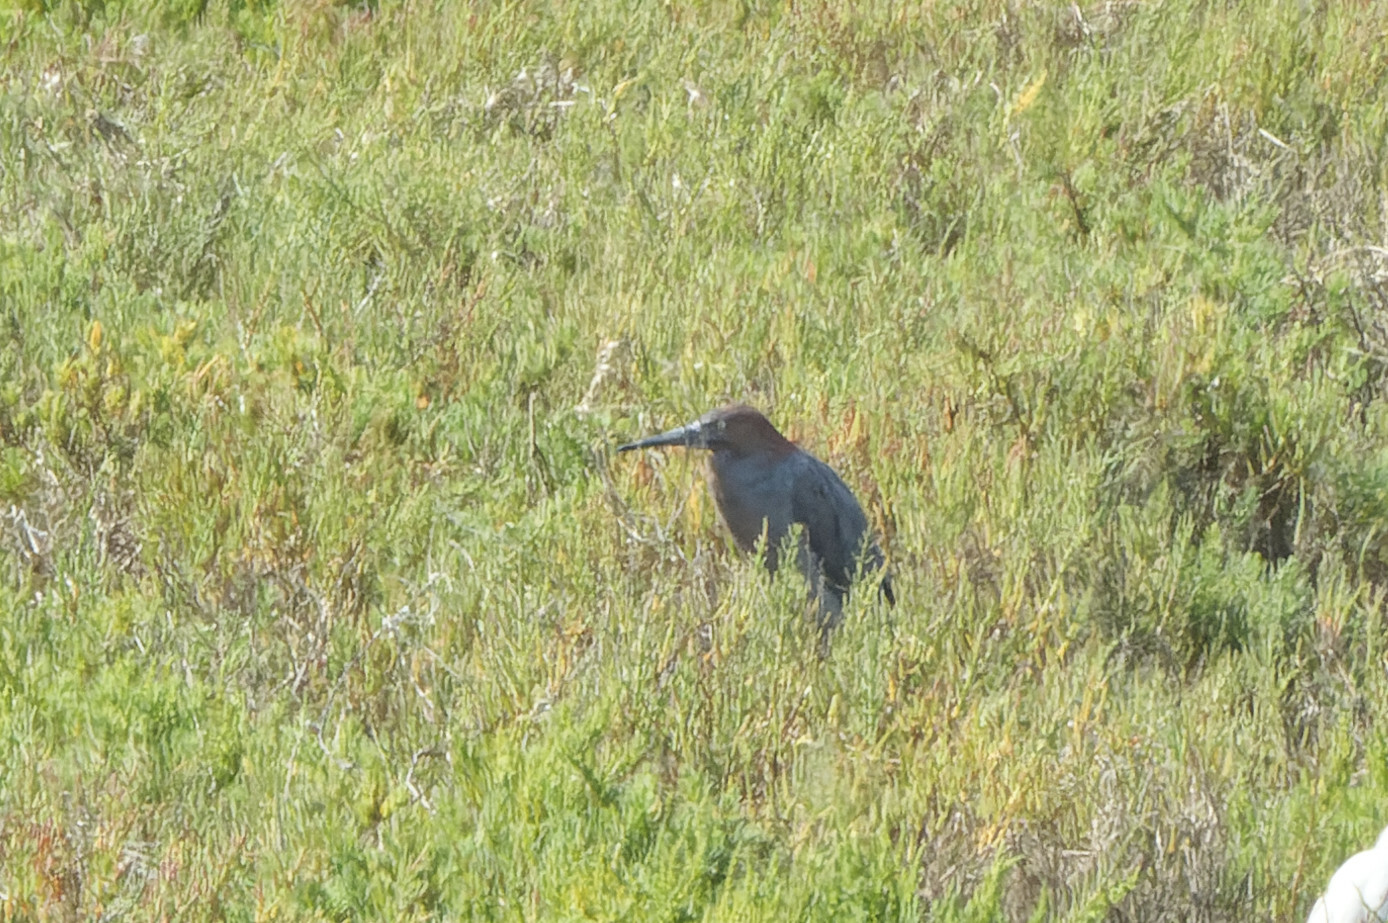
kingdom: Animalia
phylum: Chordata
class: Aves
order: Pelecaniformes
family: Ardeidae
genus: Egretta
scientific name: Egretta rufescens
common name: Reddish egret
